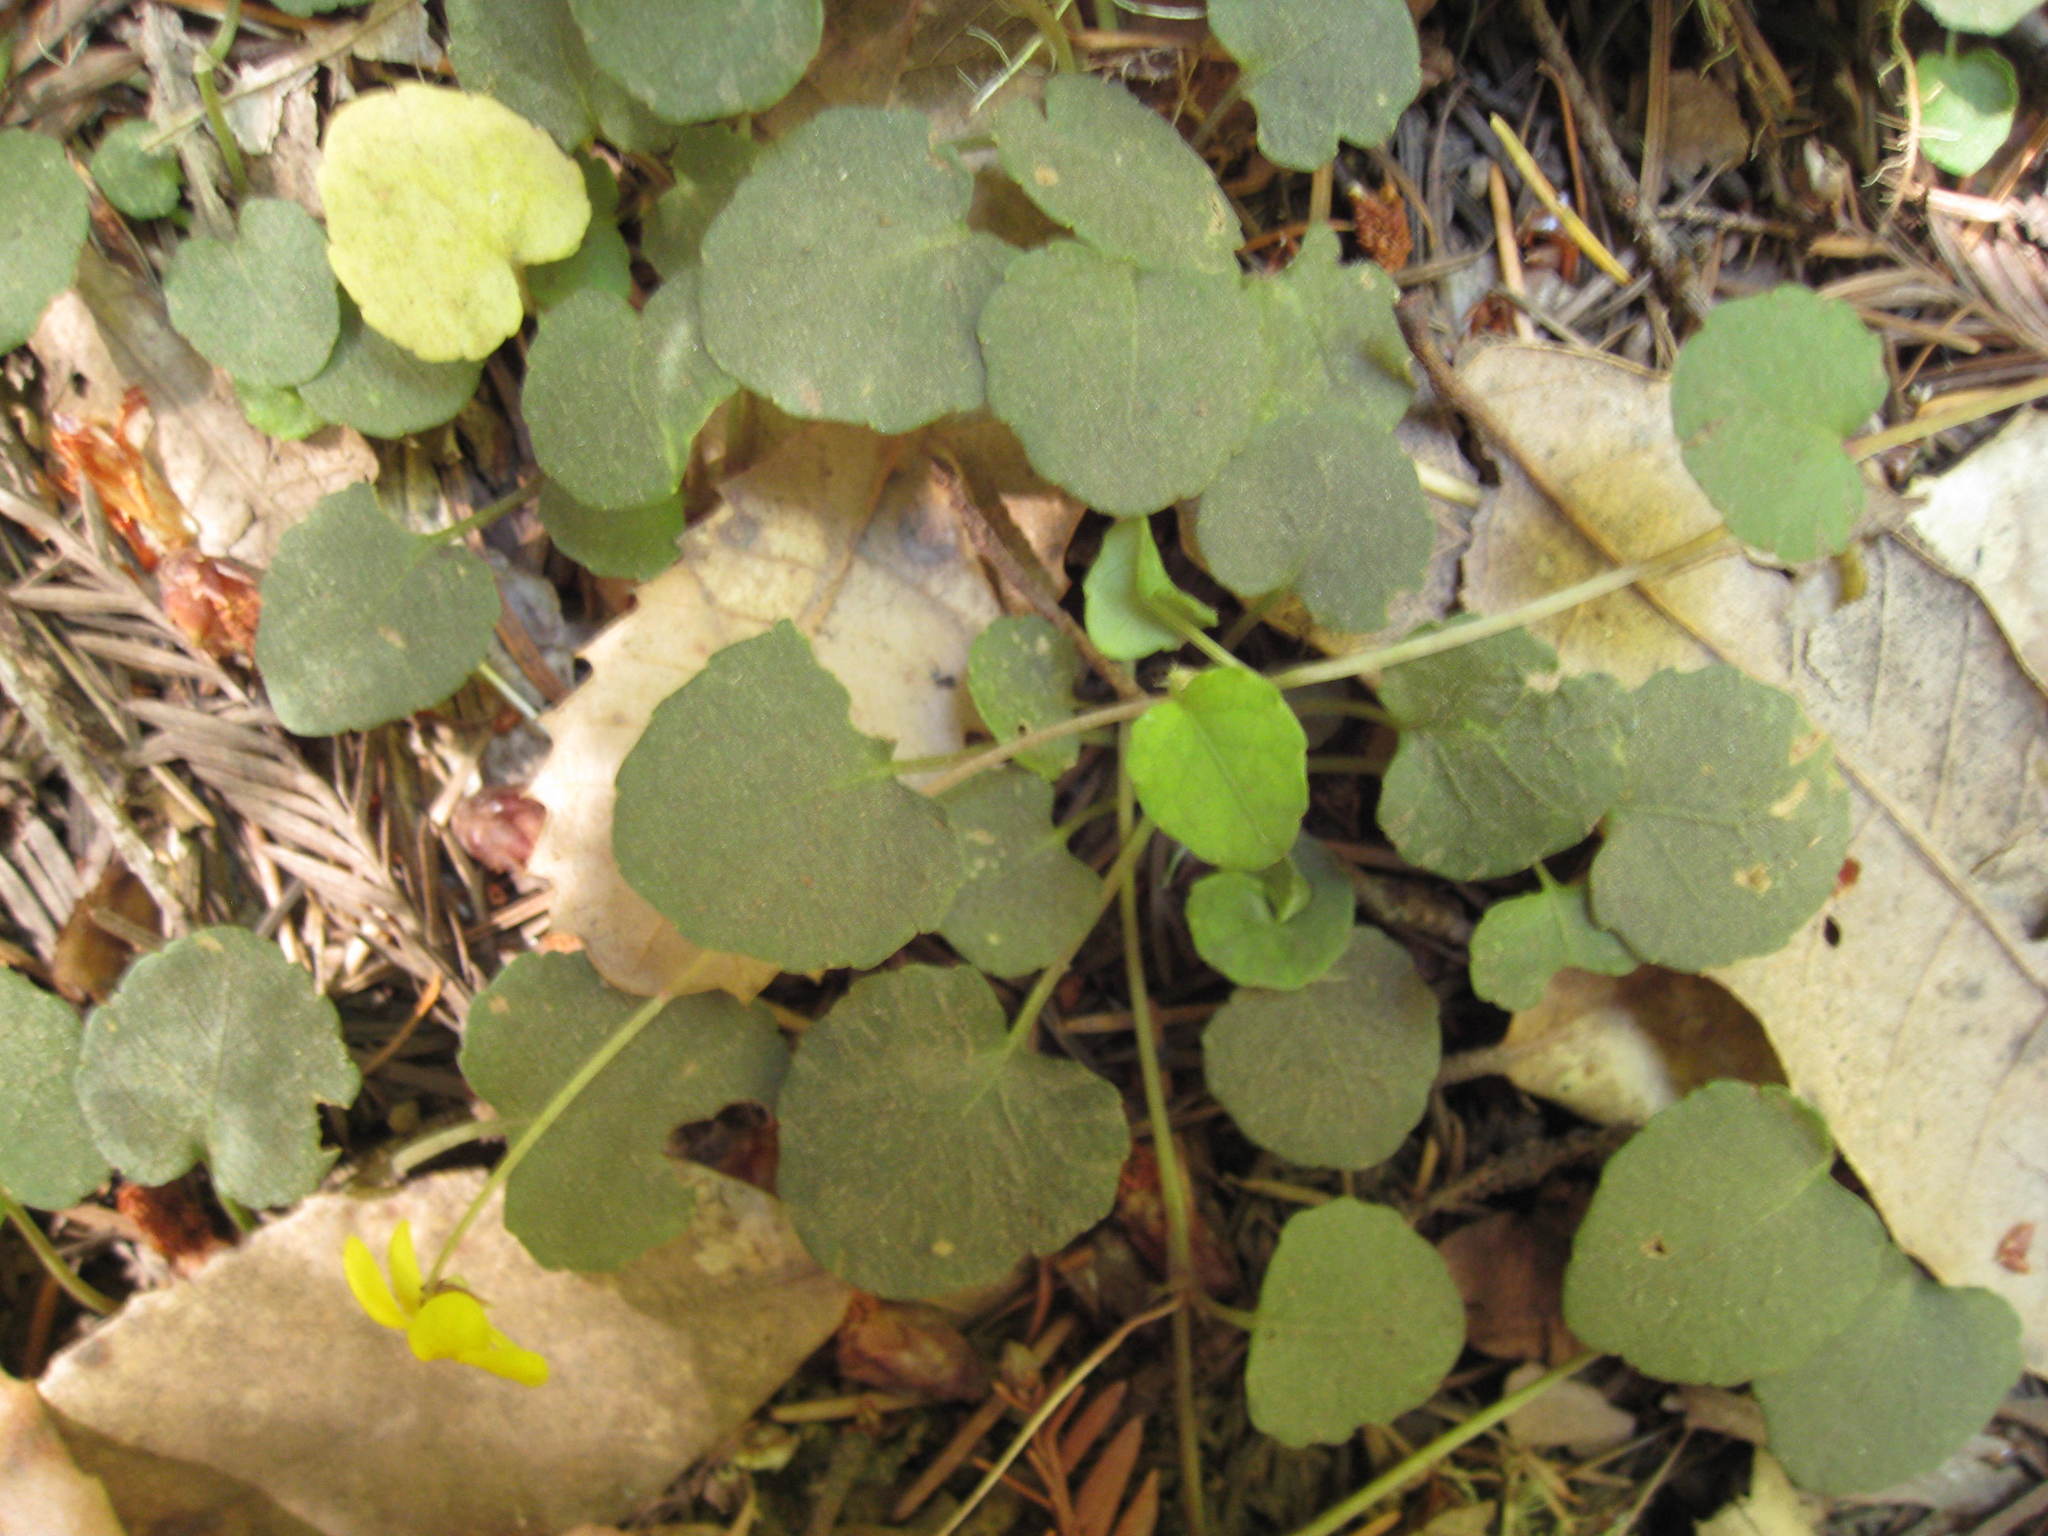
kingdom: Plantae
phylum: Tracheophyta
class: Magnoliopsida
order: Malpighiales
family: Violaceae
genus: Viola
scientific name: Viola sempervirens
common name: Evergreen violet
